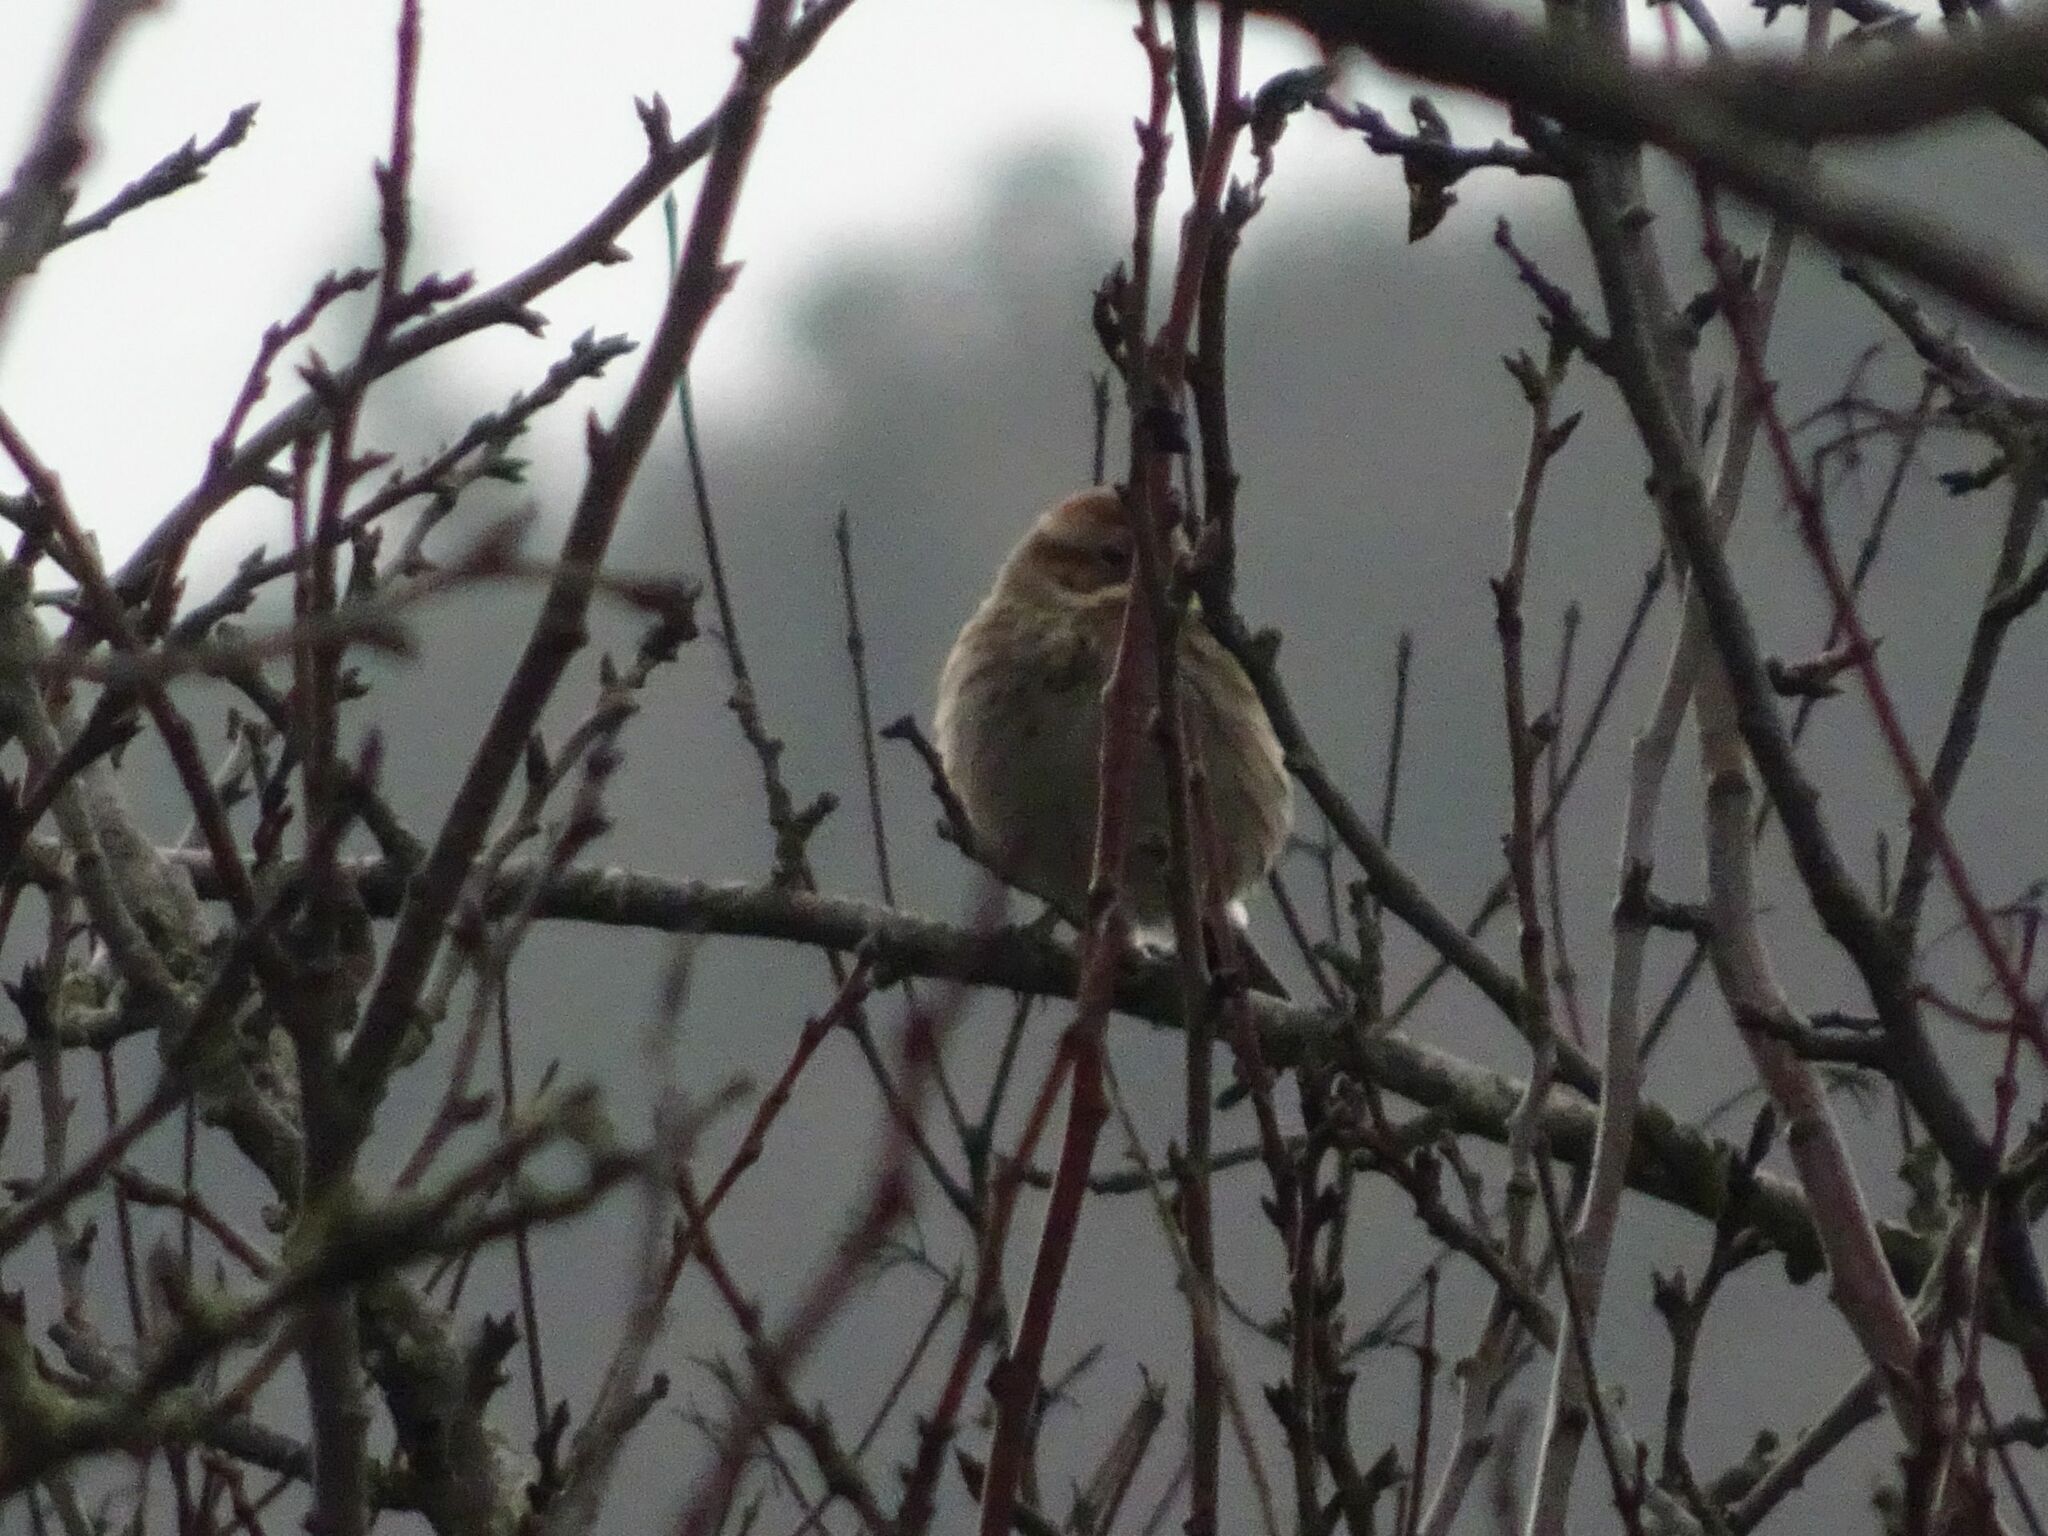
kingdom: Animalia
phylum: Chordata
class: Aves
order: Passeriformes
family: Emberizidae
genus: Emberiza
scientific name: Emberiza schoeniclus
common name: Reed bunting
